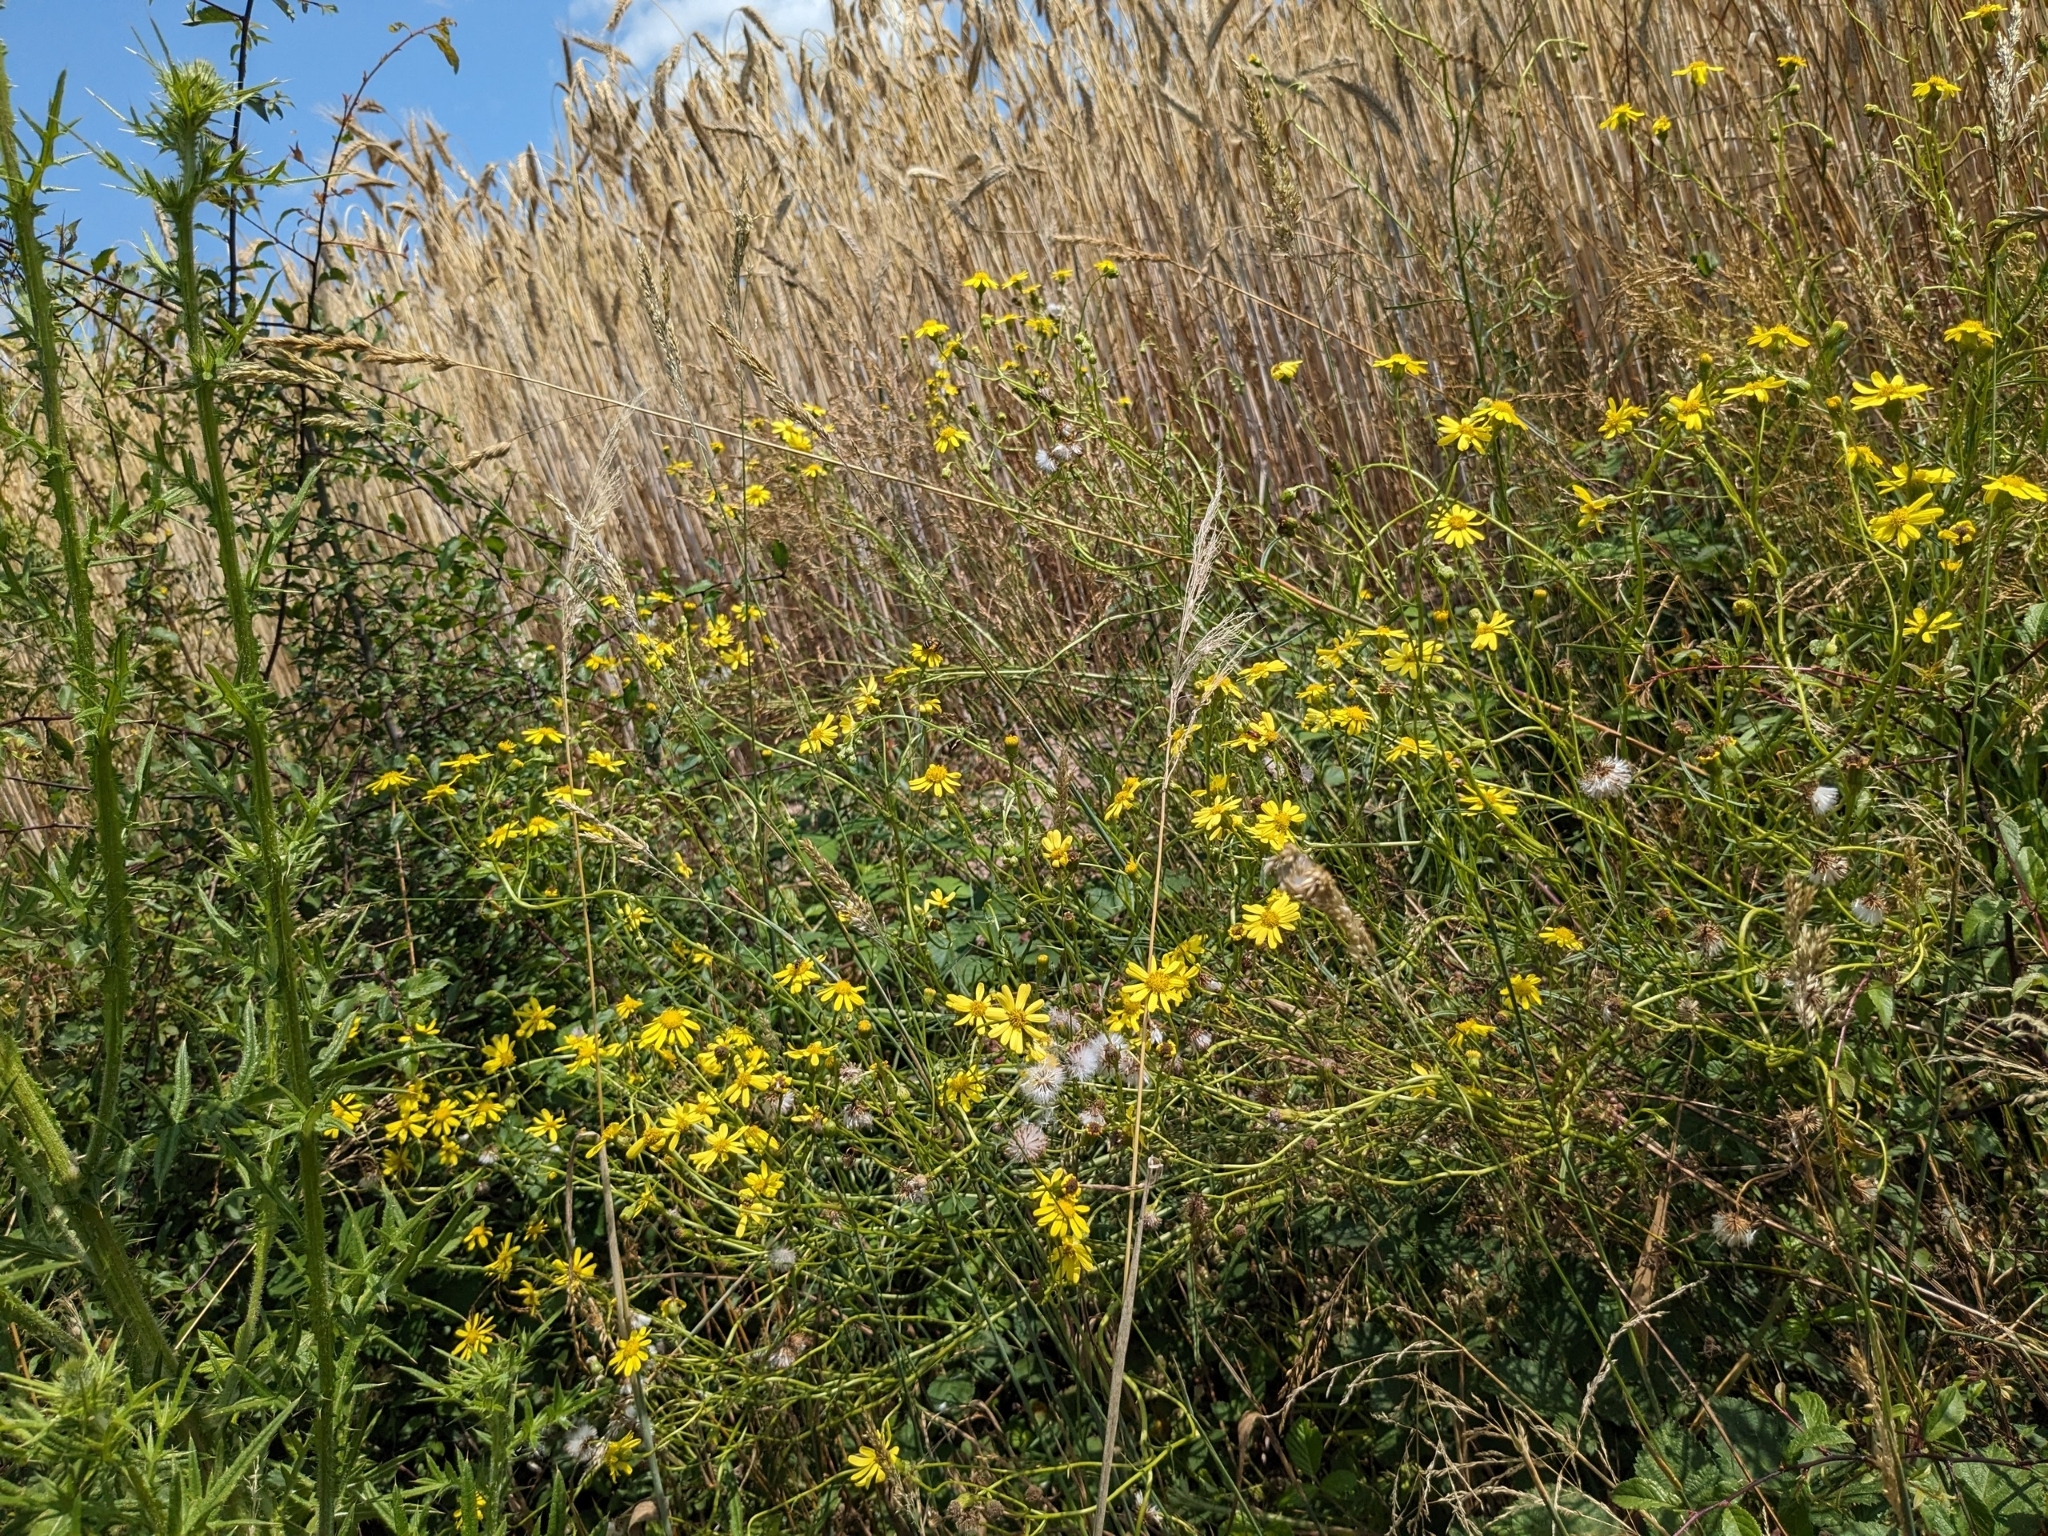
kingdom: Plantae
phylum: Tracheophyta
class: Magnoliopsida
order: Asterales
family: Asteraceae
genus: Senecio
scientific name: Senecio inaequidens
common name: Narrow-leaved ragwort
